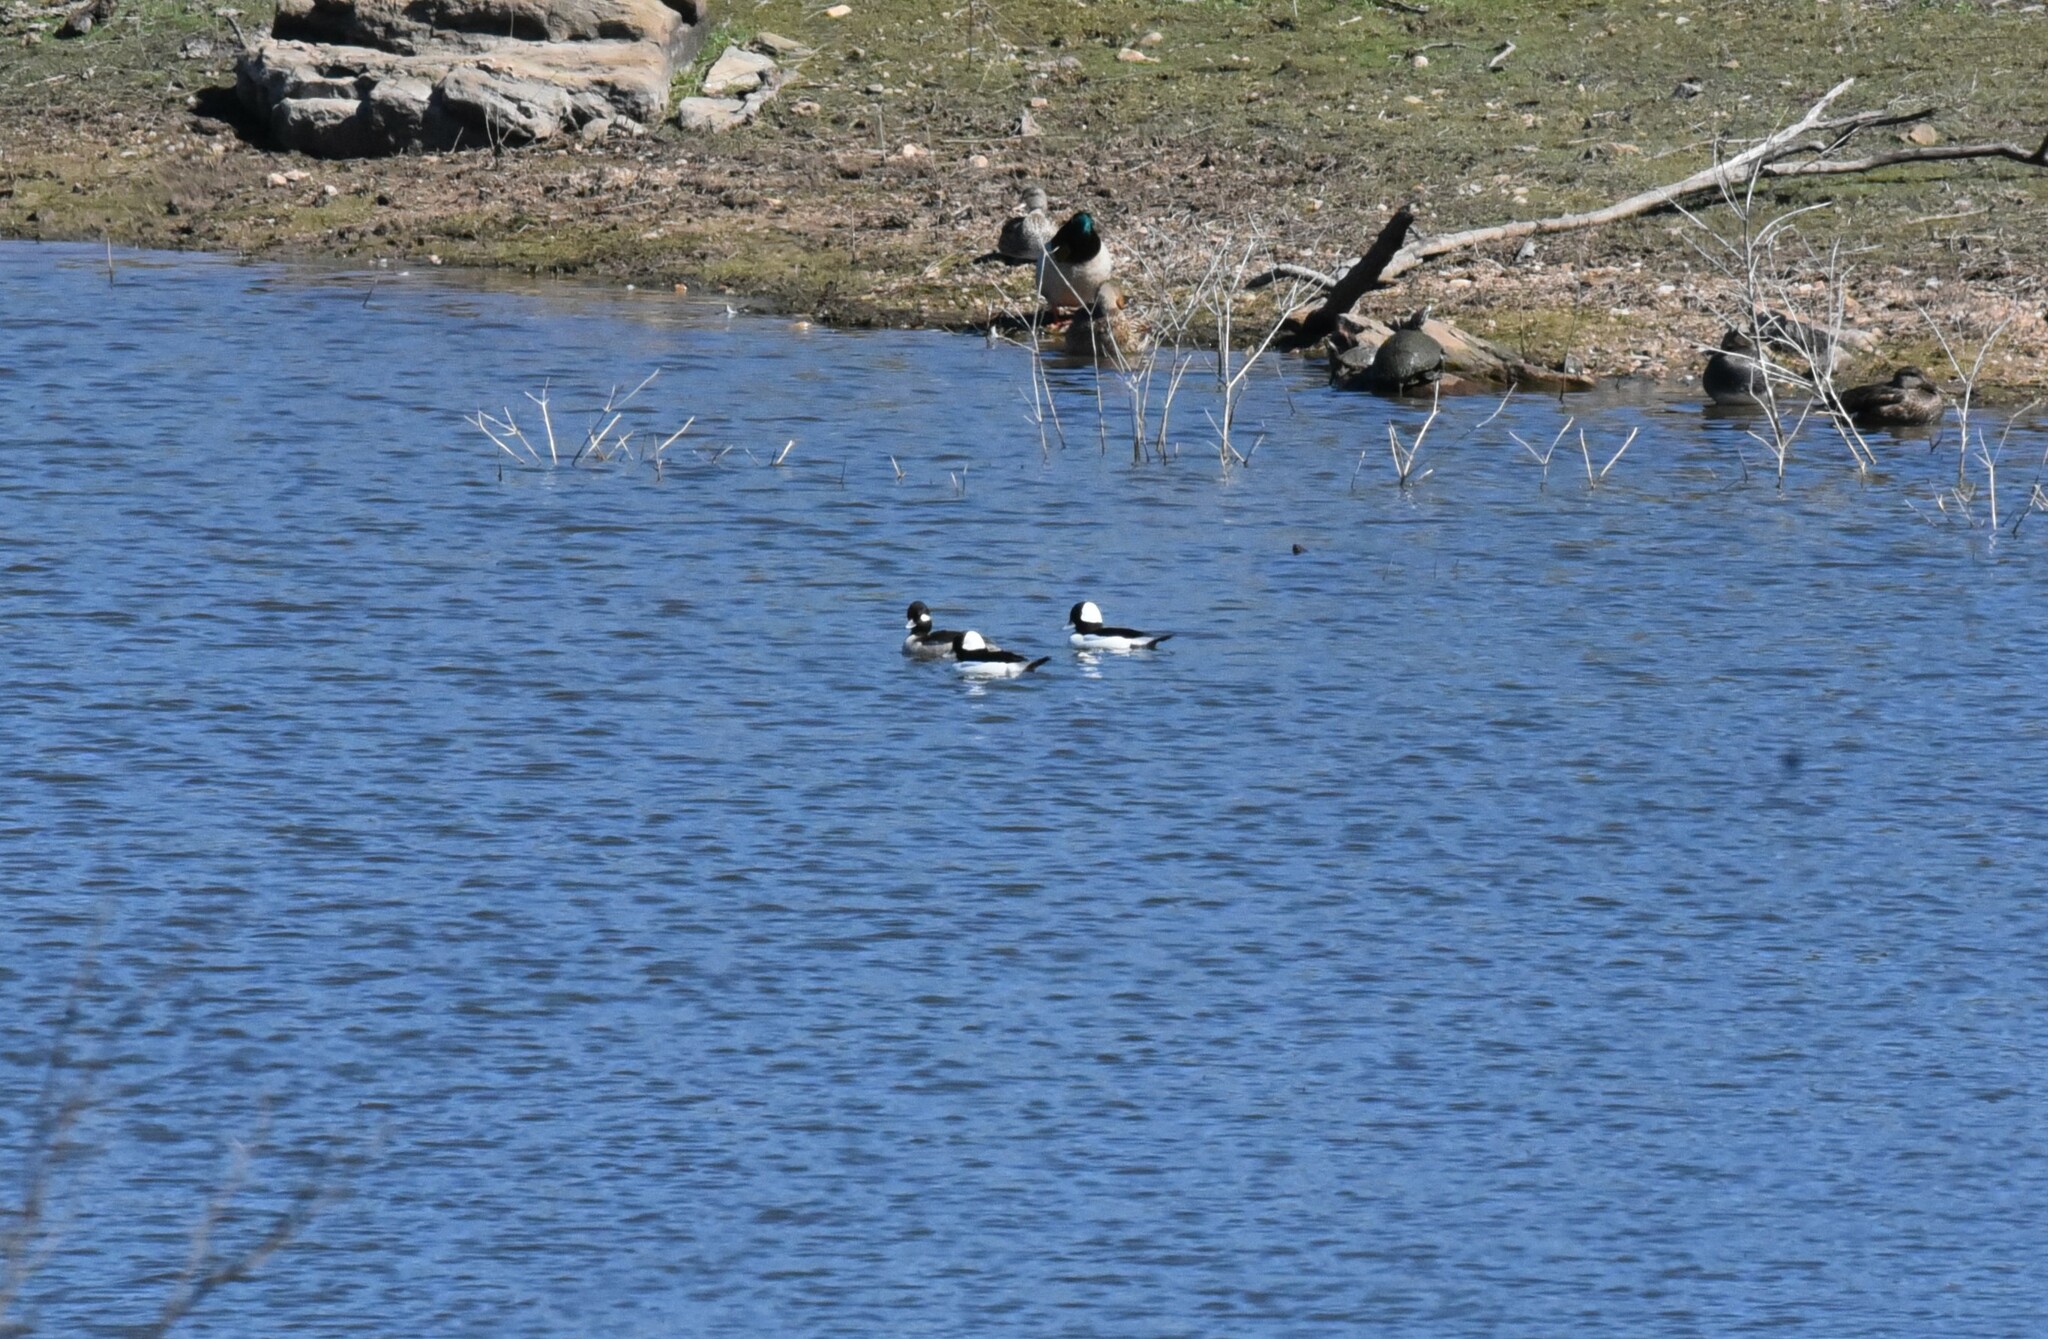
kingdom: Animalia
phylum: Chordata
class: Aves
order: Anseriformes
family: Anatidae
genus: Bucephala
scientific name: Bucephala albeola
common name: Bufflehead
